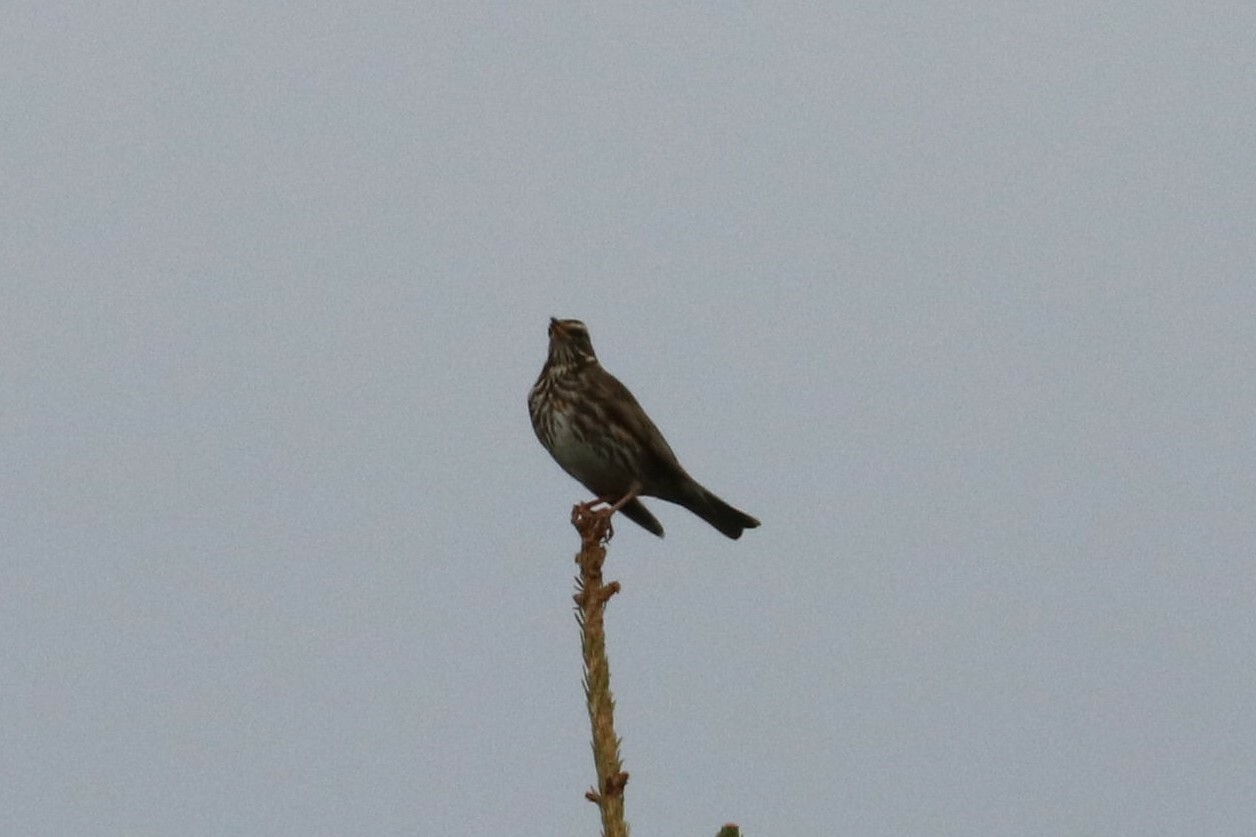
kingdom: Animalia
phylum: Chordata
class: Aves
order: Passeriformes
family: Turdidae
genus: Turdus
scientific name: Turdus iliacus
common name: Redwing
